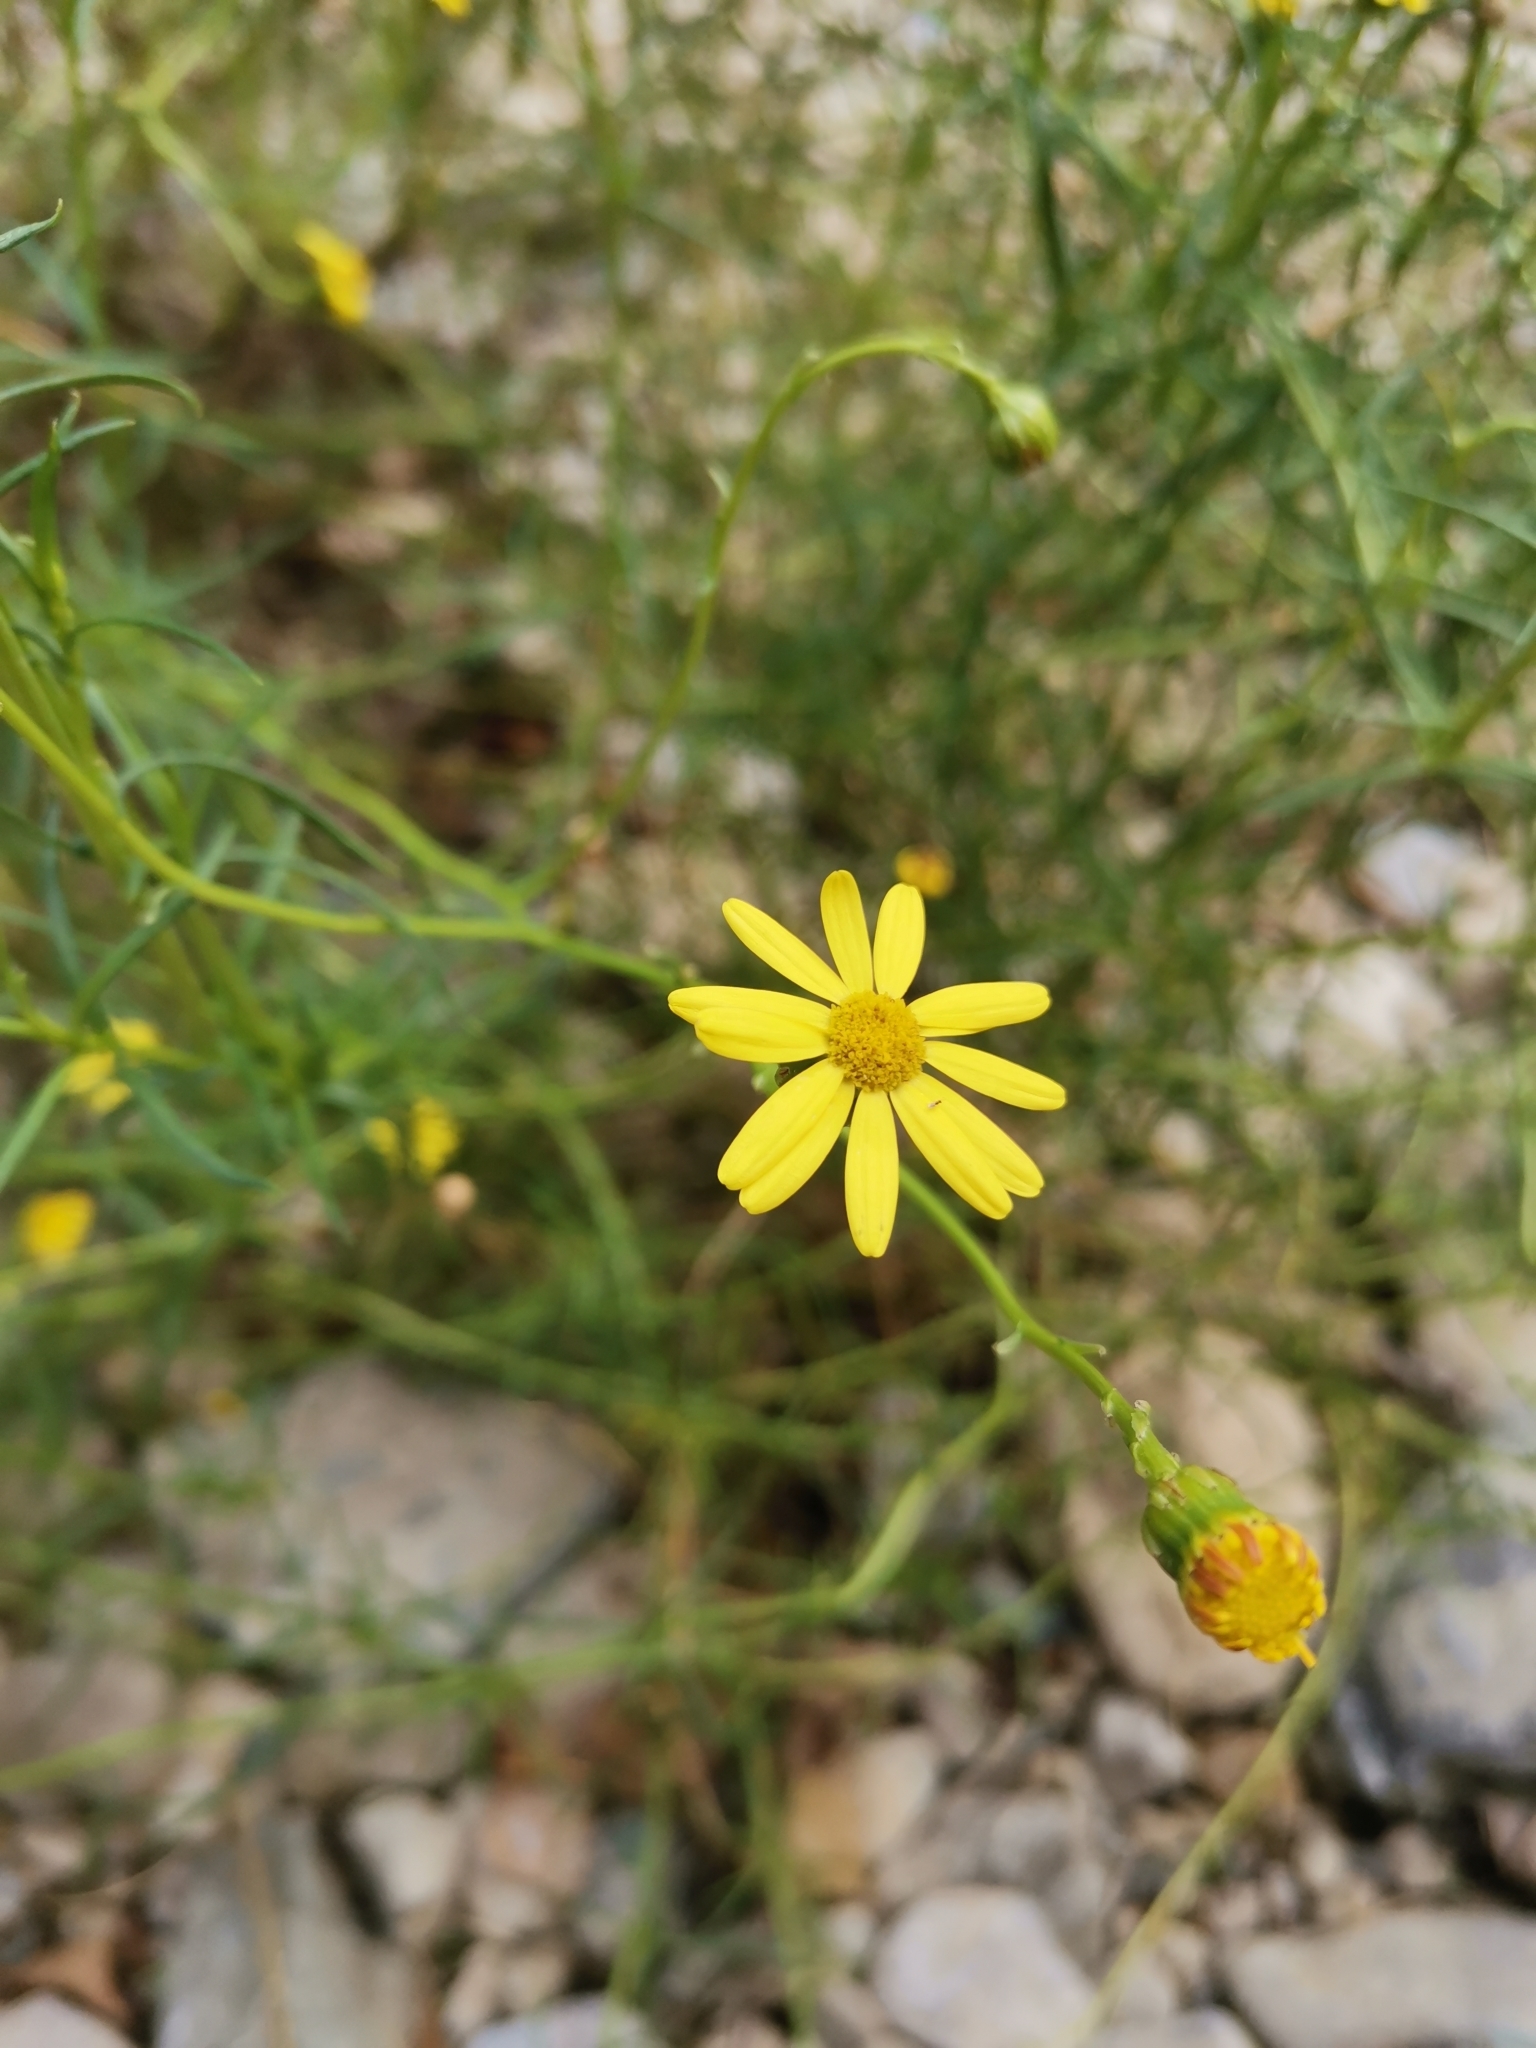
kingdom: Plantae
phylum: Tracheophyta
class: Magnoliopsida
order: Asterales
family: Asteraceae
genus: Senecio
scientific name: Senecio inaequidens
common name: Narrow-leaved ragwort
